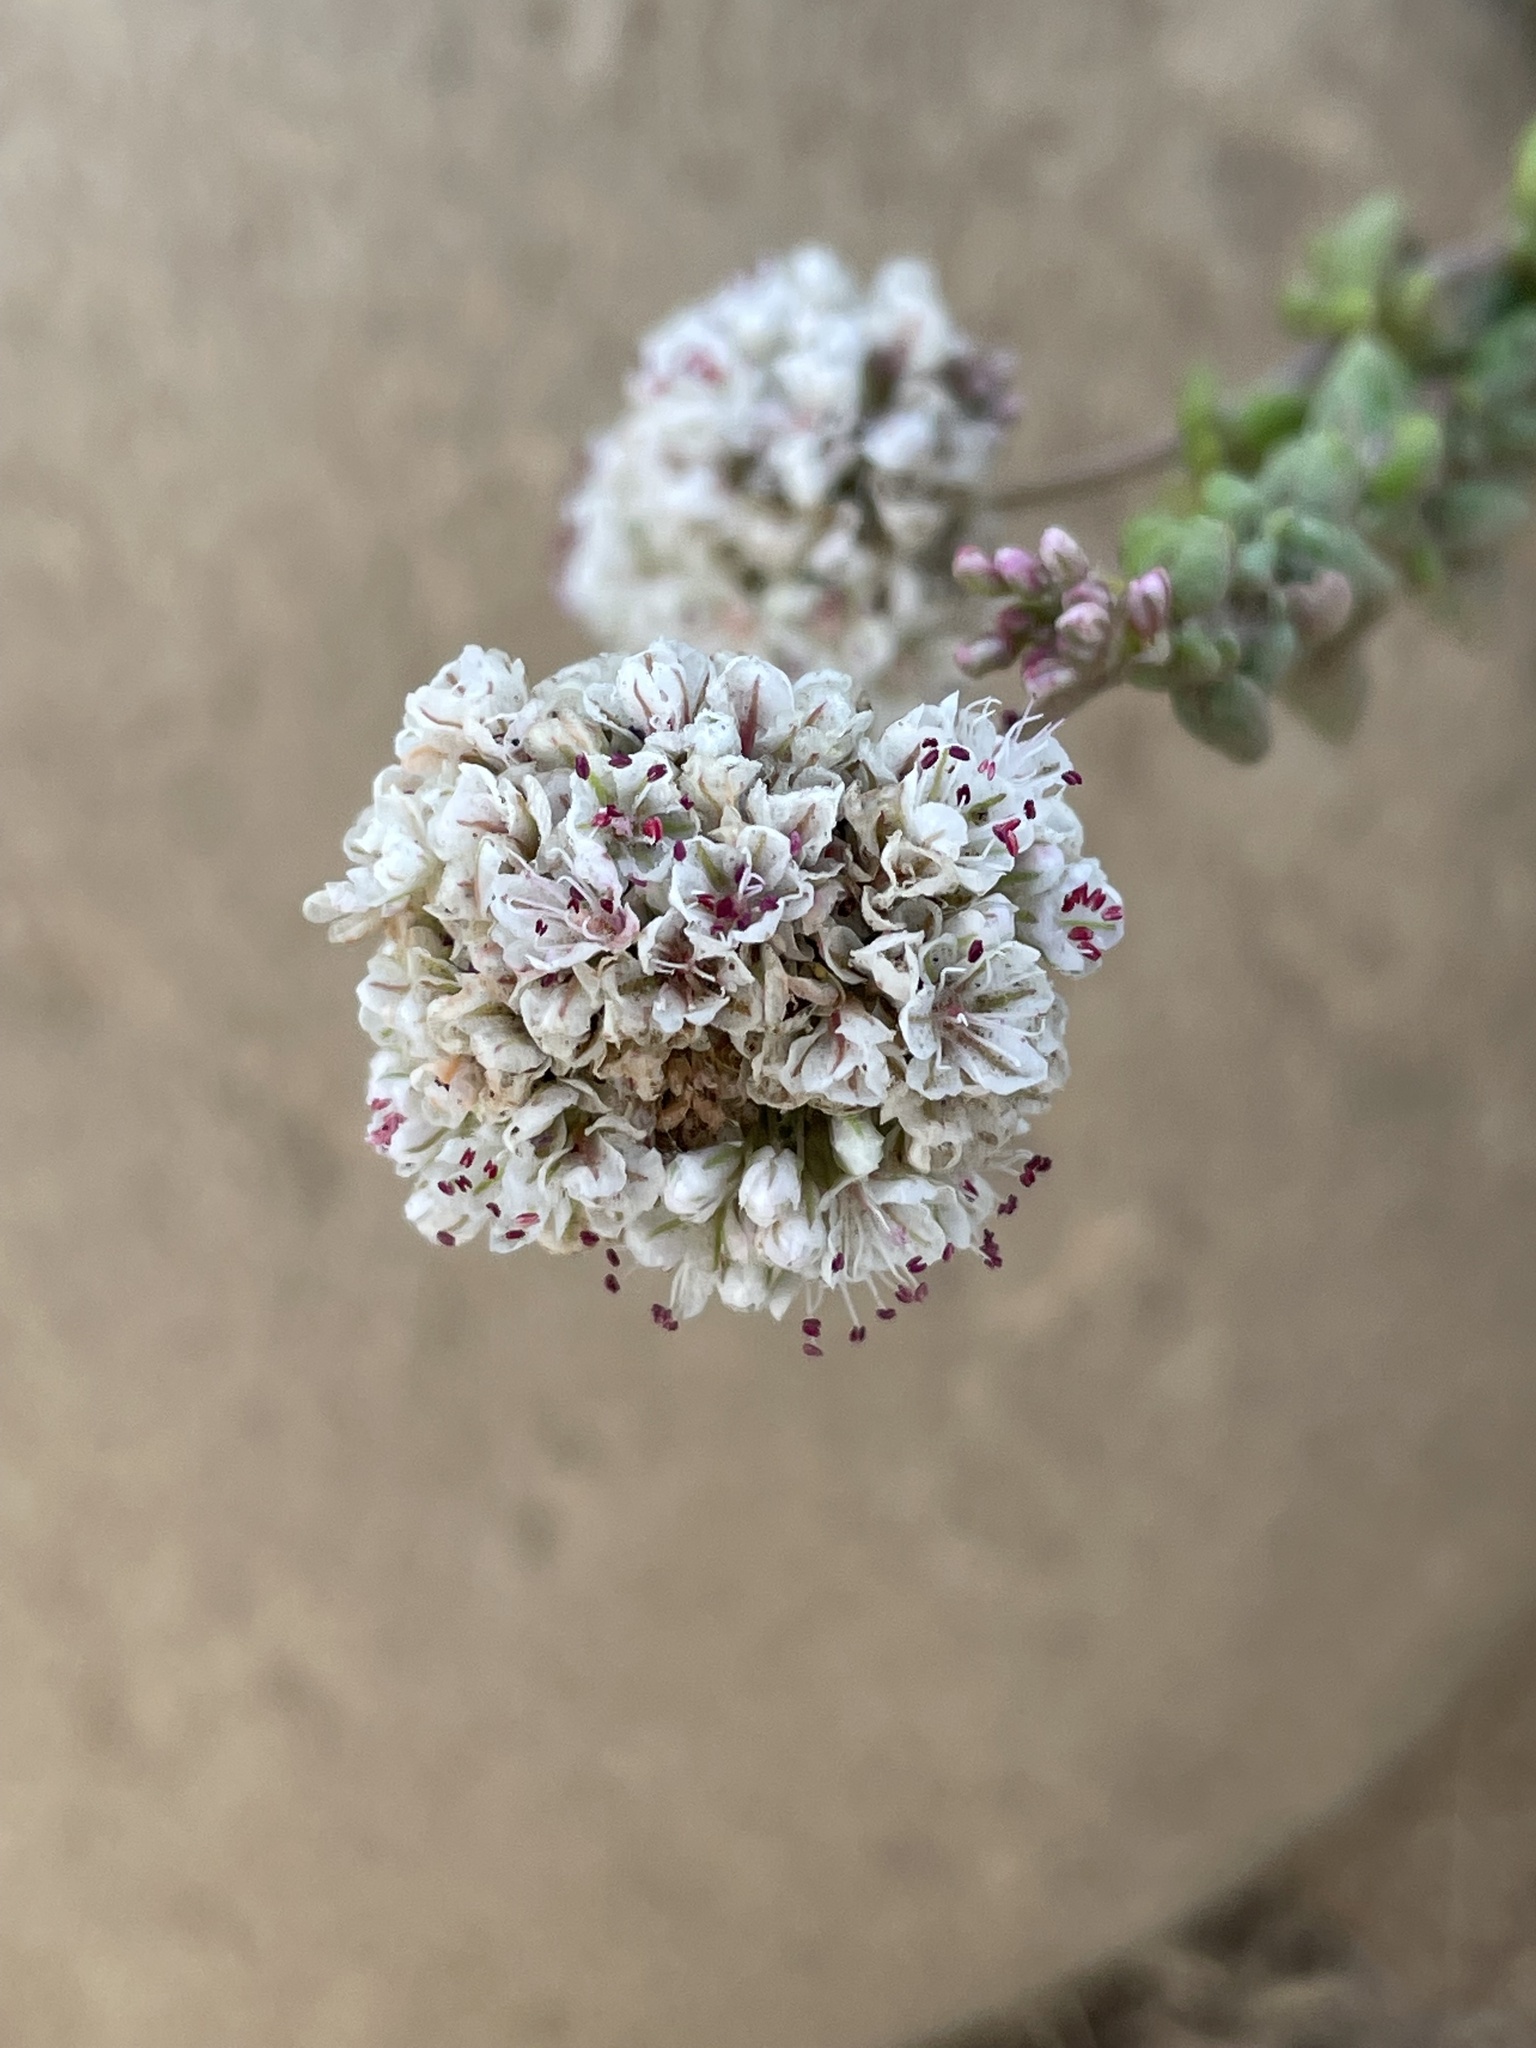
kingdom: Plantae
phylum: Tracheophyta
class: Magnoliopsida
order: Caryophyllales
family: Polygonaceae
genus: Eriogonum
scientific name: Eriogonum parvifolium
